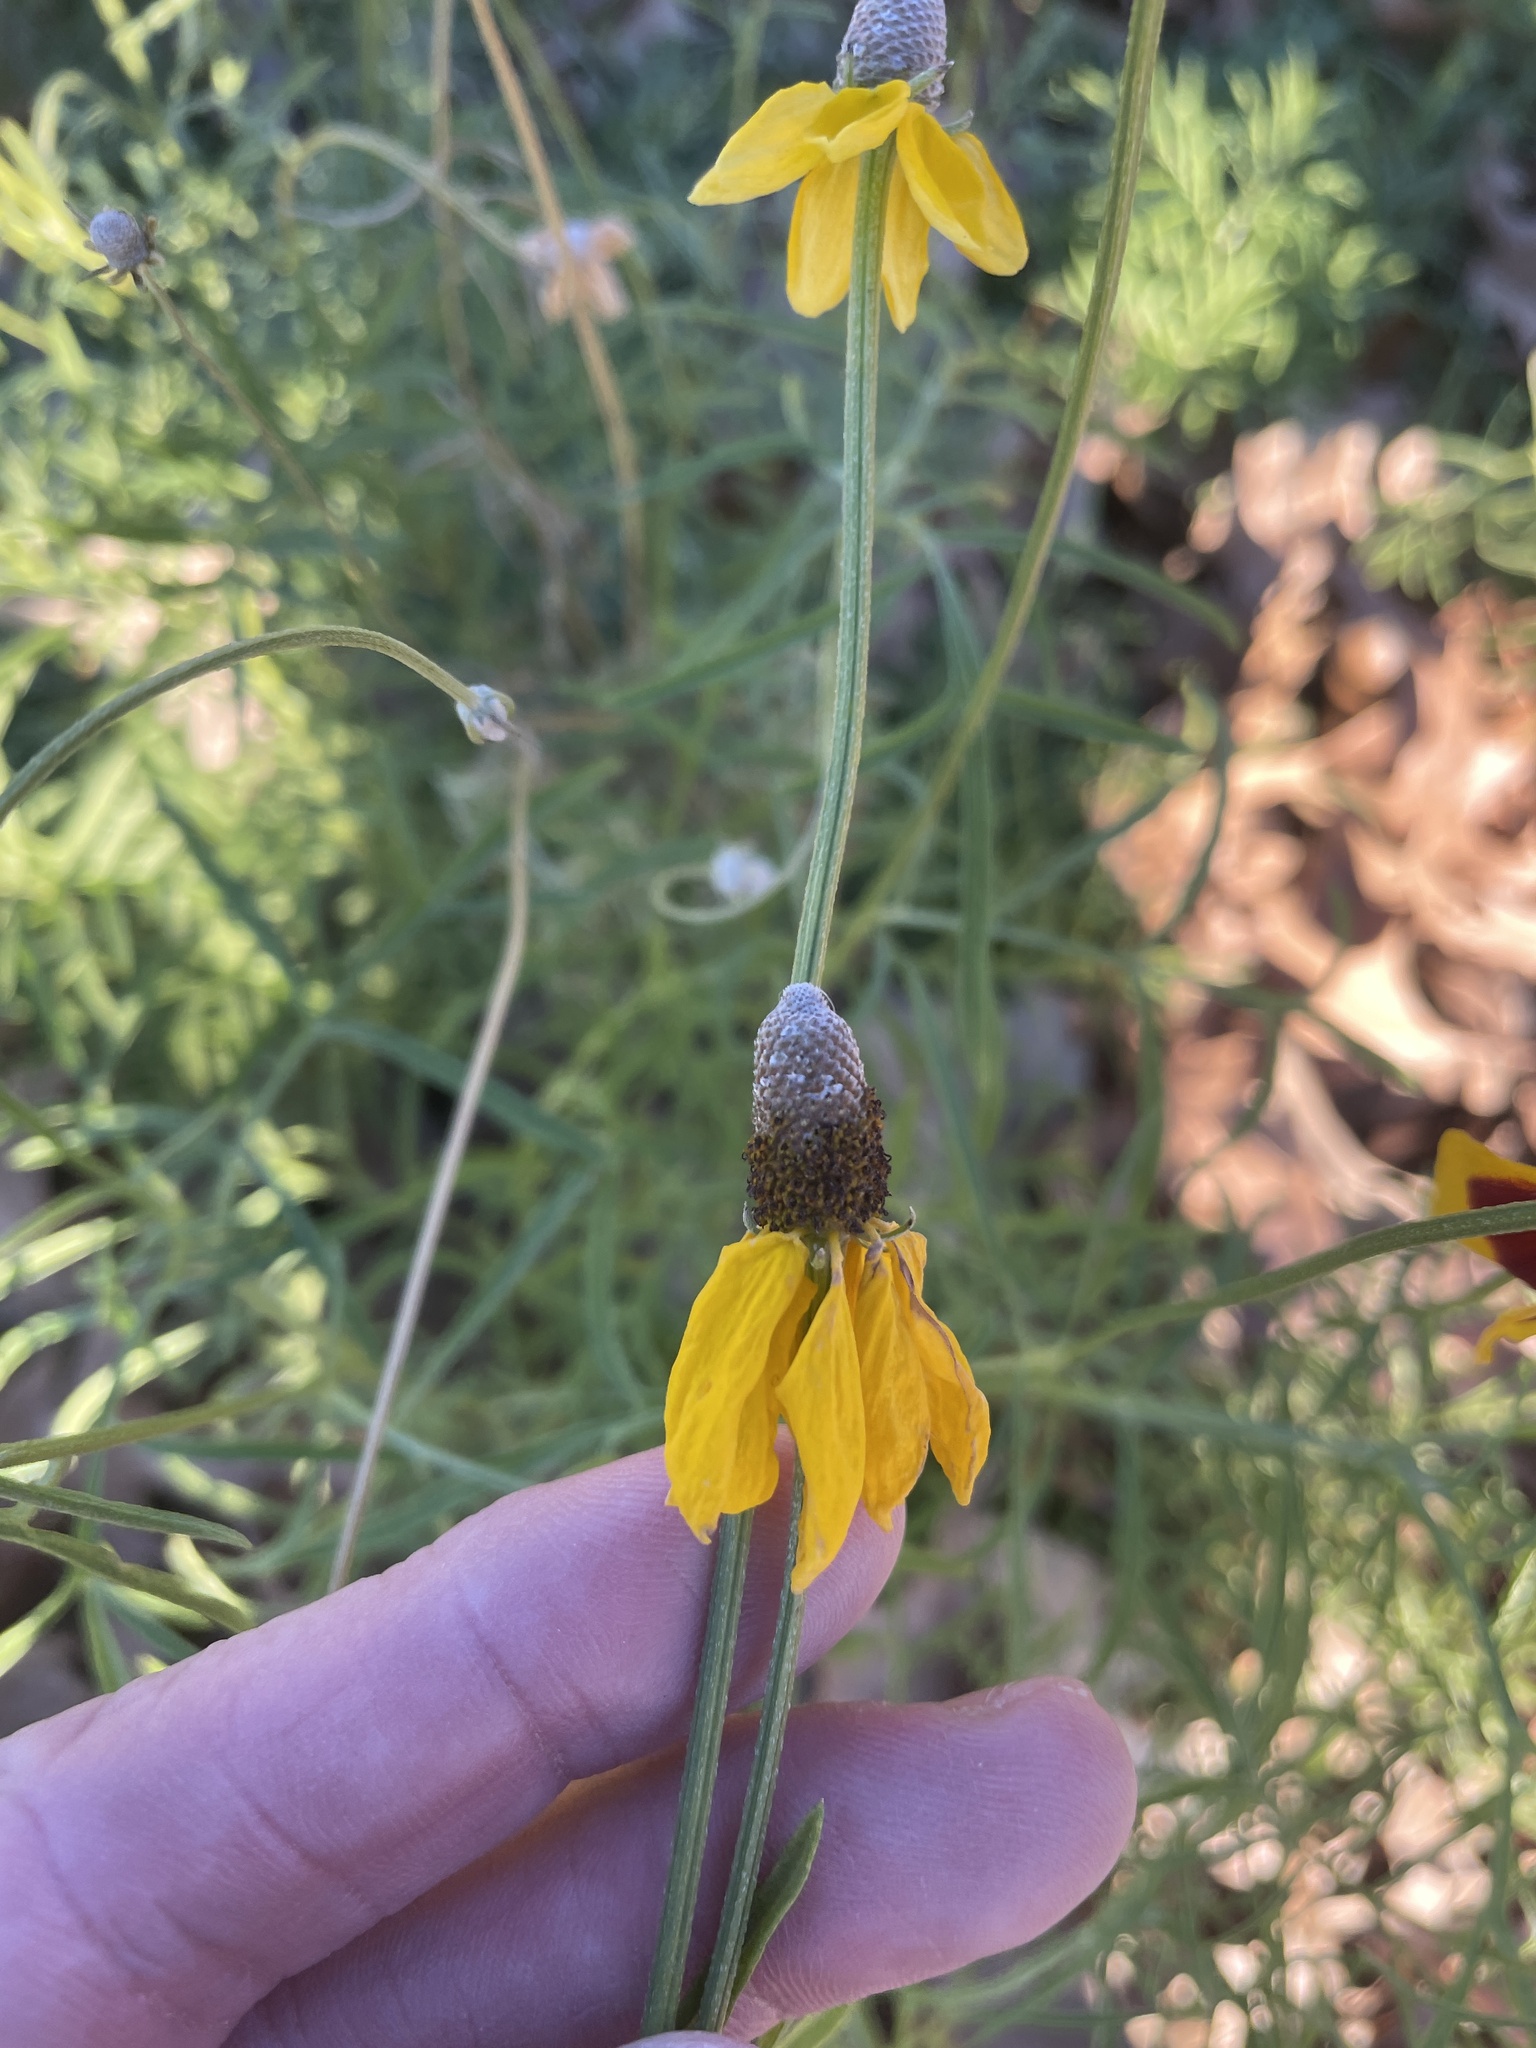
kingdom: Plantae
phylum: Tracheophyta
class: Magnoliopsida
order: Asterales
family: Asteraceae
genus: Ratibida
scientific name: Ratibida columnifera
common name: Prairie coneflower
